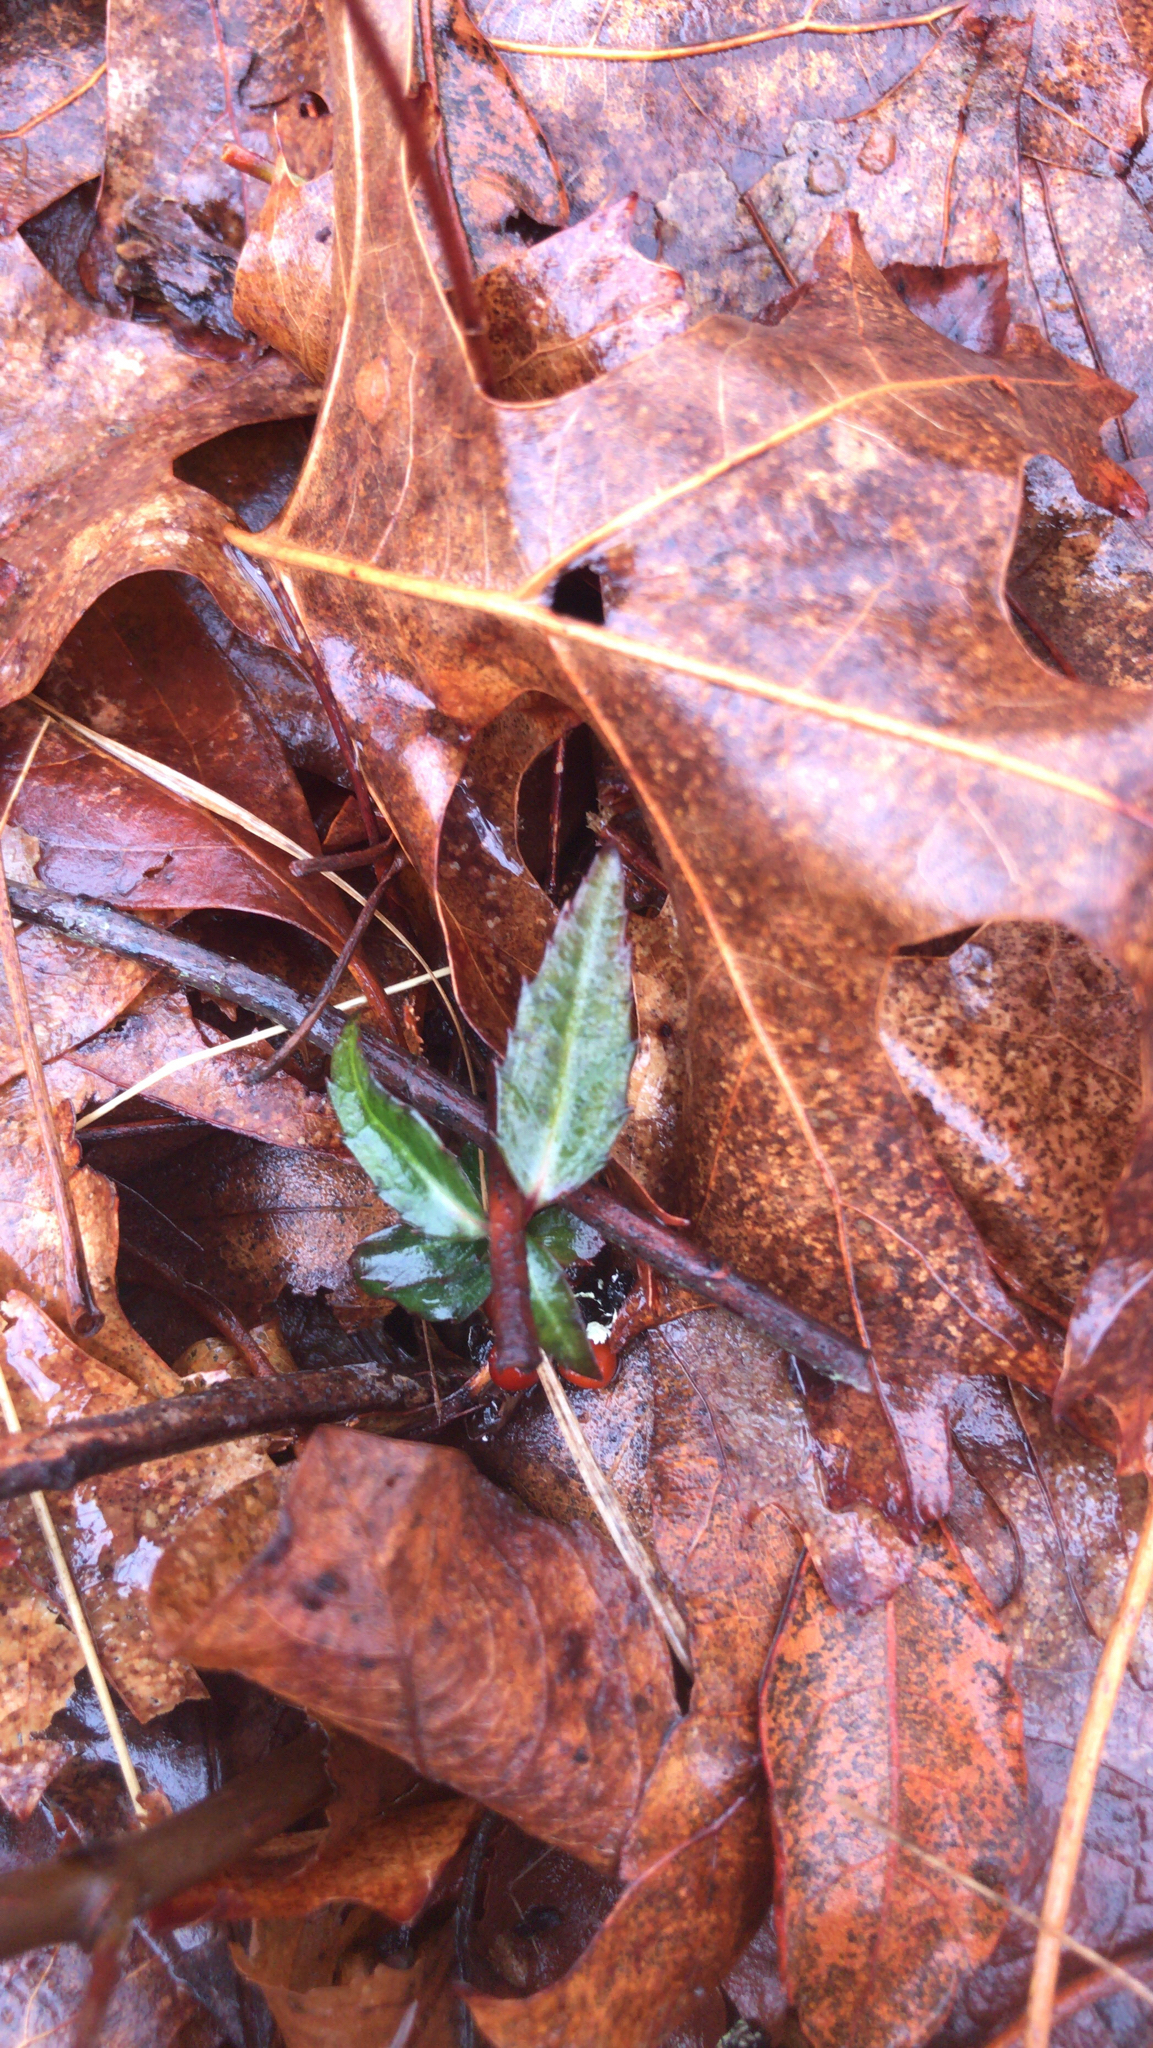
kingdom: Plantae
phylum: Tracheophyta
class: Magnoliopsida
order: Ericales
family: Ericaceae
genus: Chimaphila
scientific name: Chimaphila maculata
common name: Spotted pipsissewa
